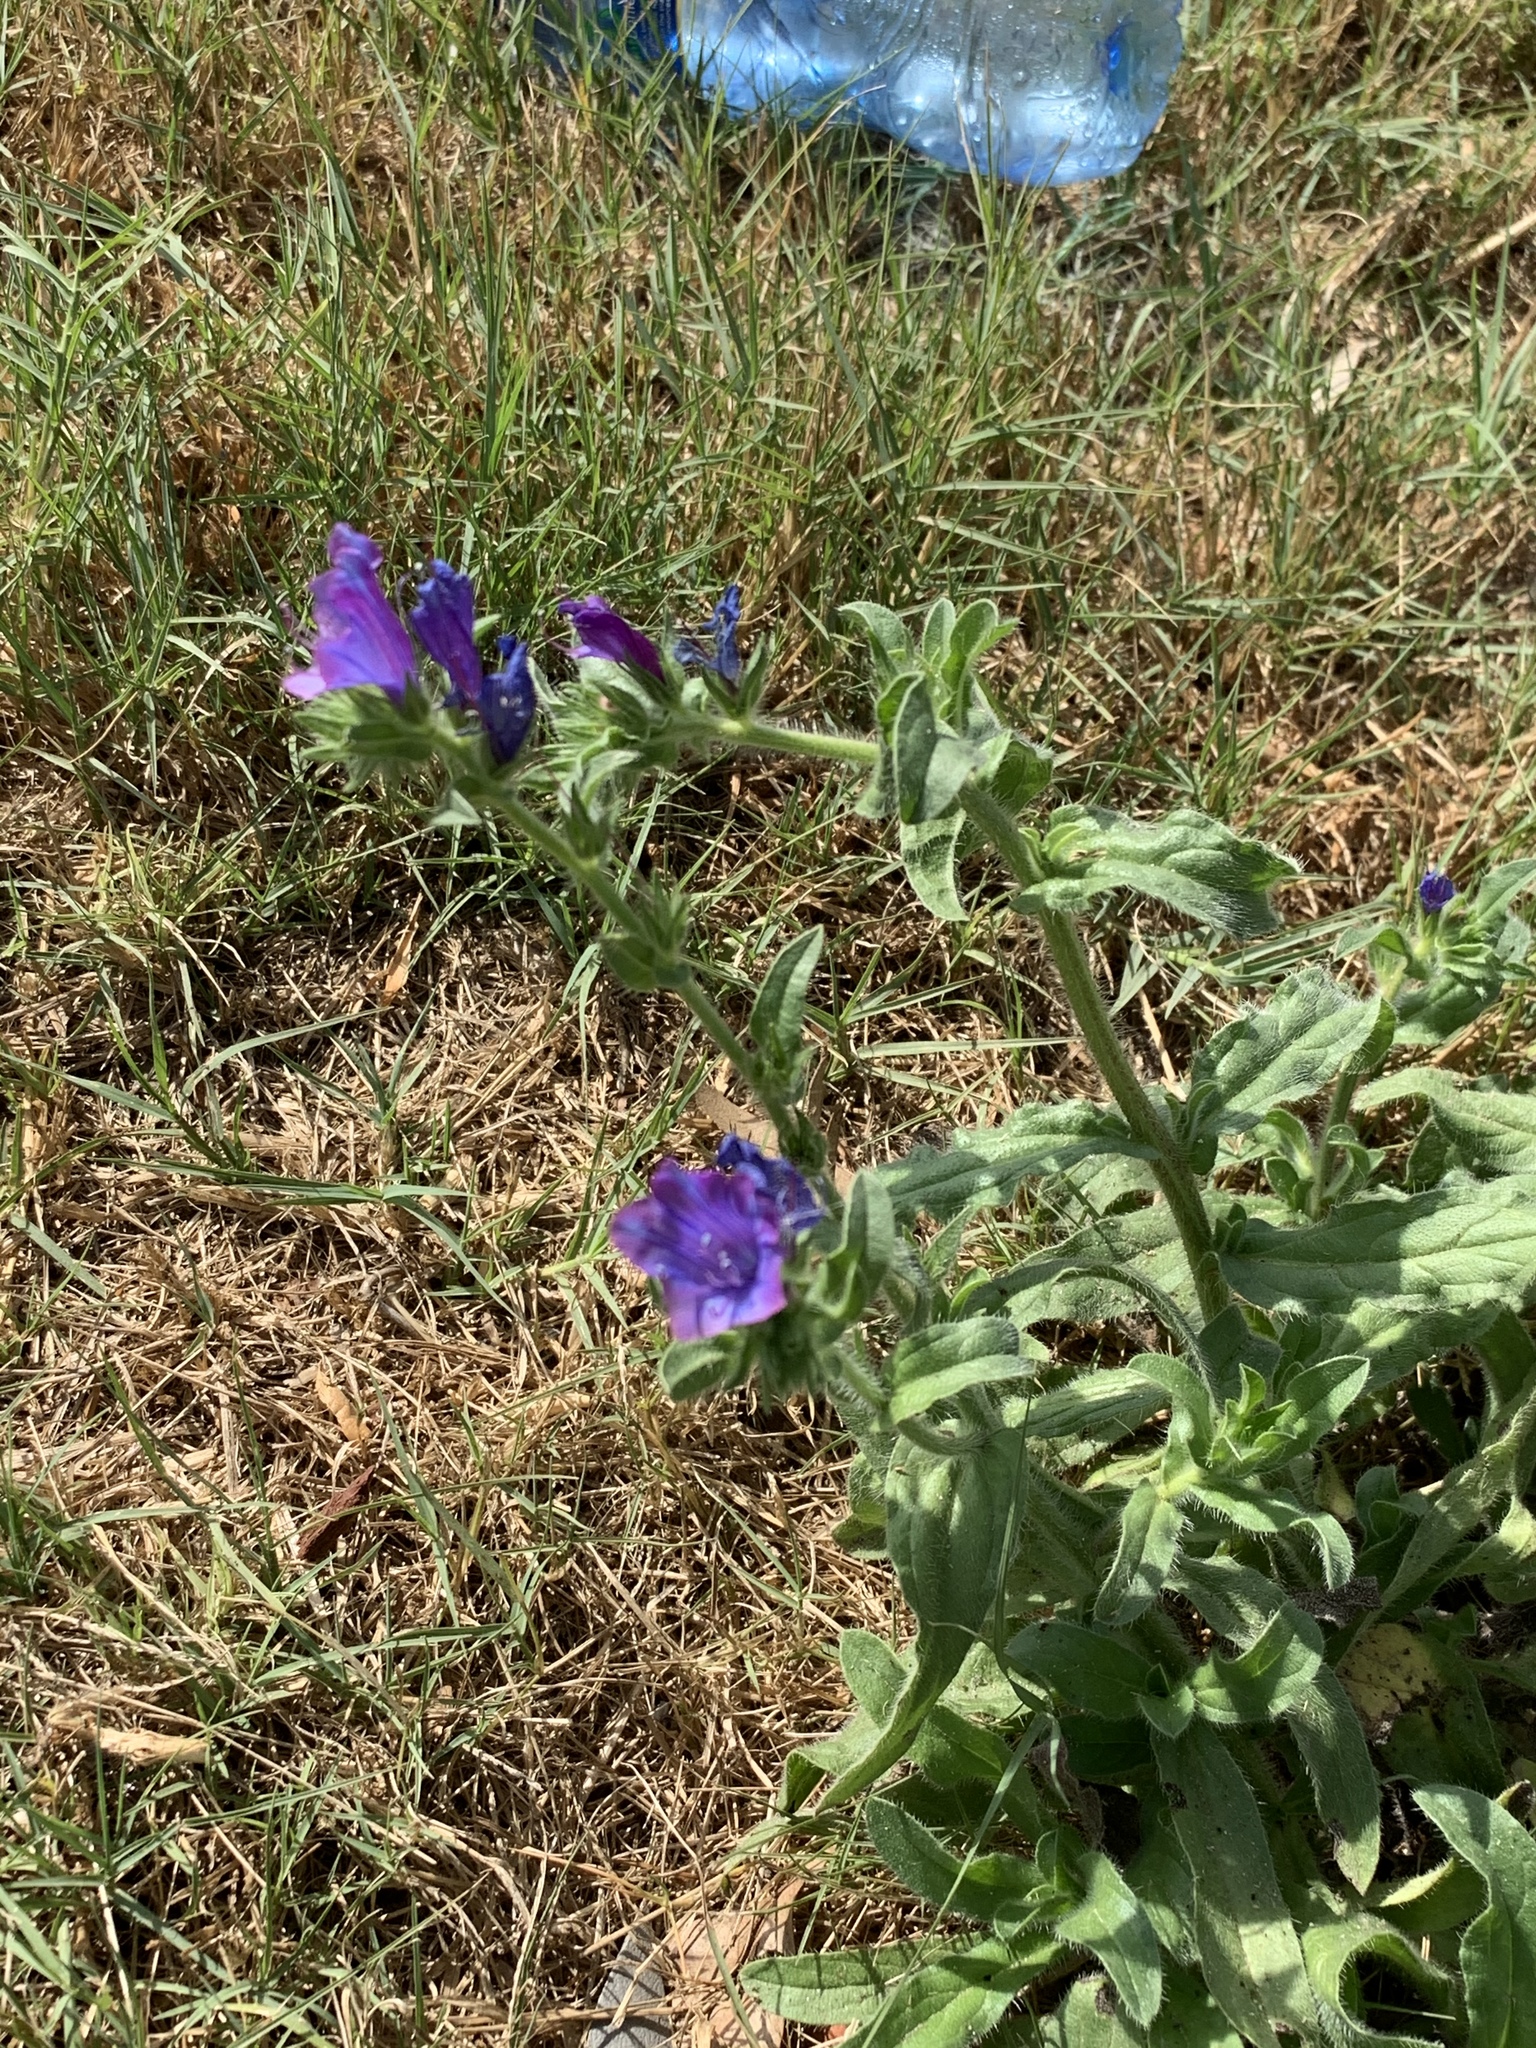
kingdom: Plantae
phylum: Tracheophyta
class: Magnoliopsida
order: Boraginales
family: Boraginaceae
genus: Echium
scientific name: Echium plantagineum
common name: Purple viper's-bugloss
